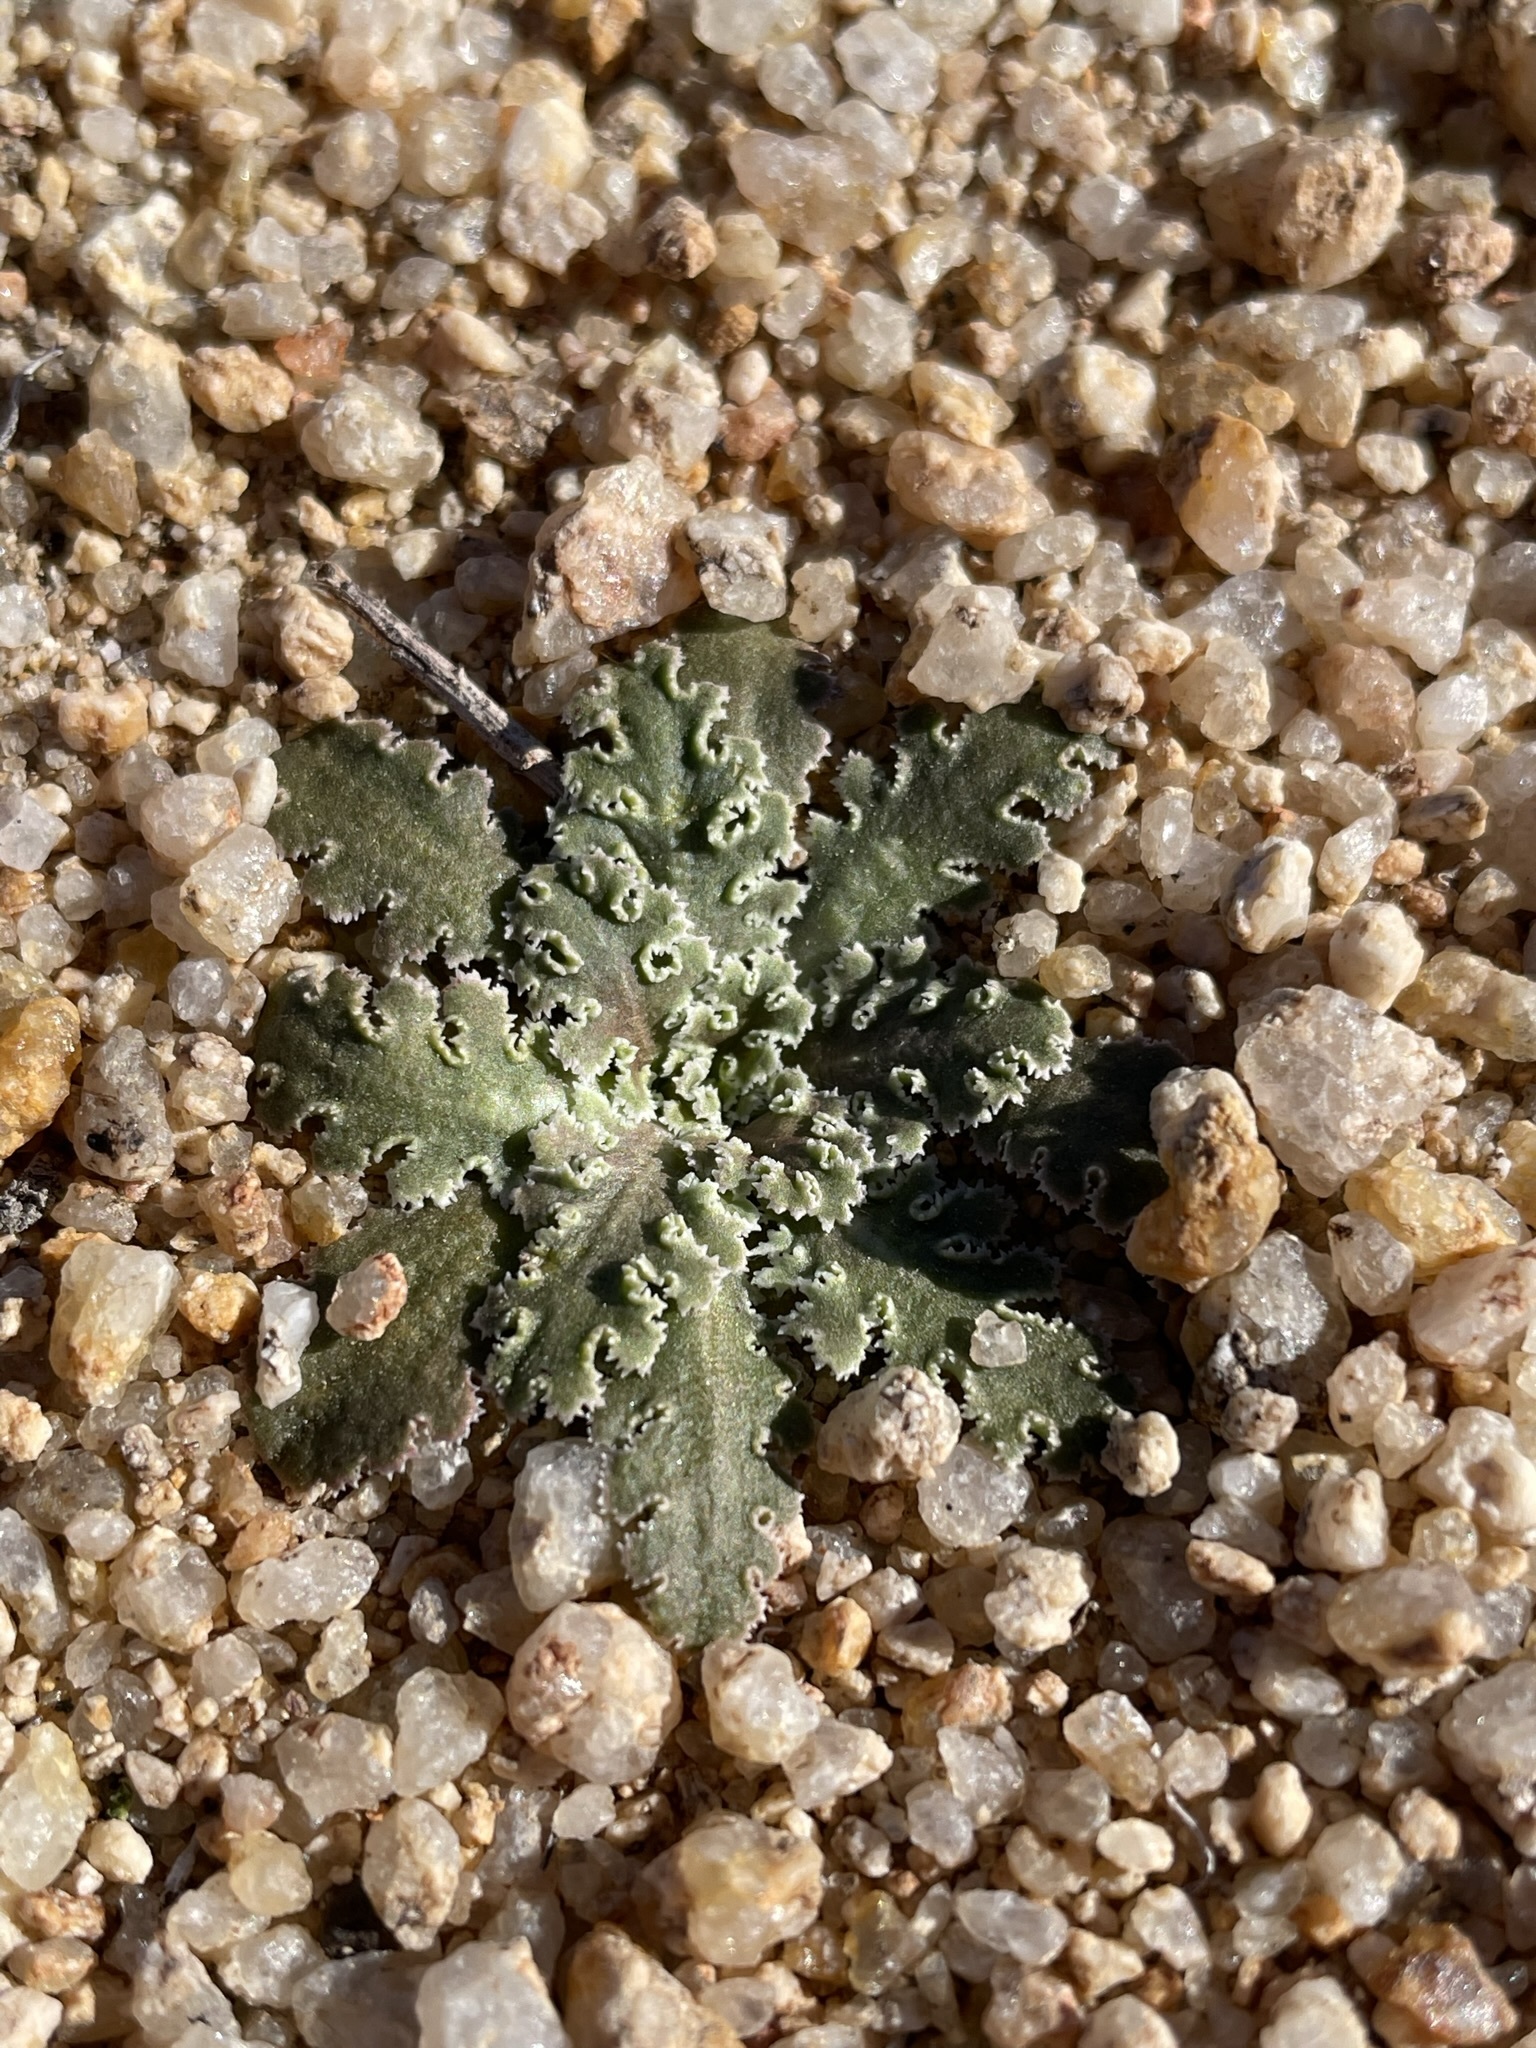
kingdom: Plantae
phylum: Tracheophyta
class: Magnoliopsida
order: Asterales
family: Asteraceae
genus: Glyptopleura
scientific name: Glyptopleura marginata
